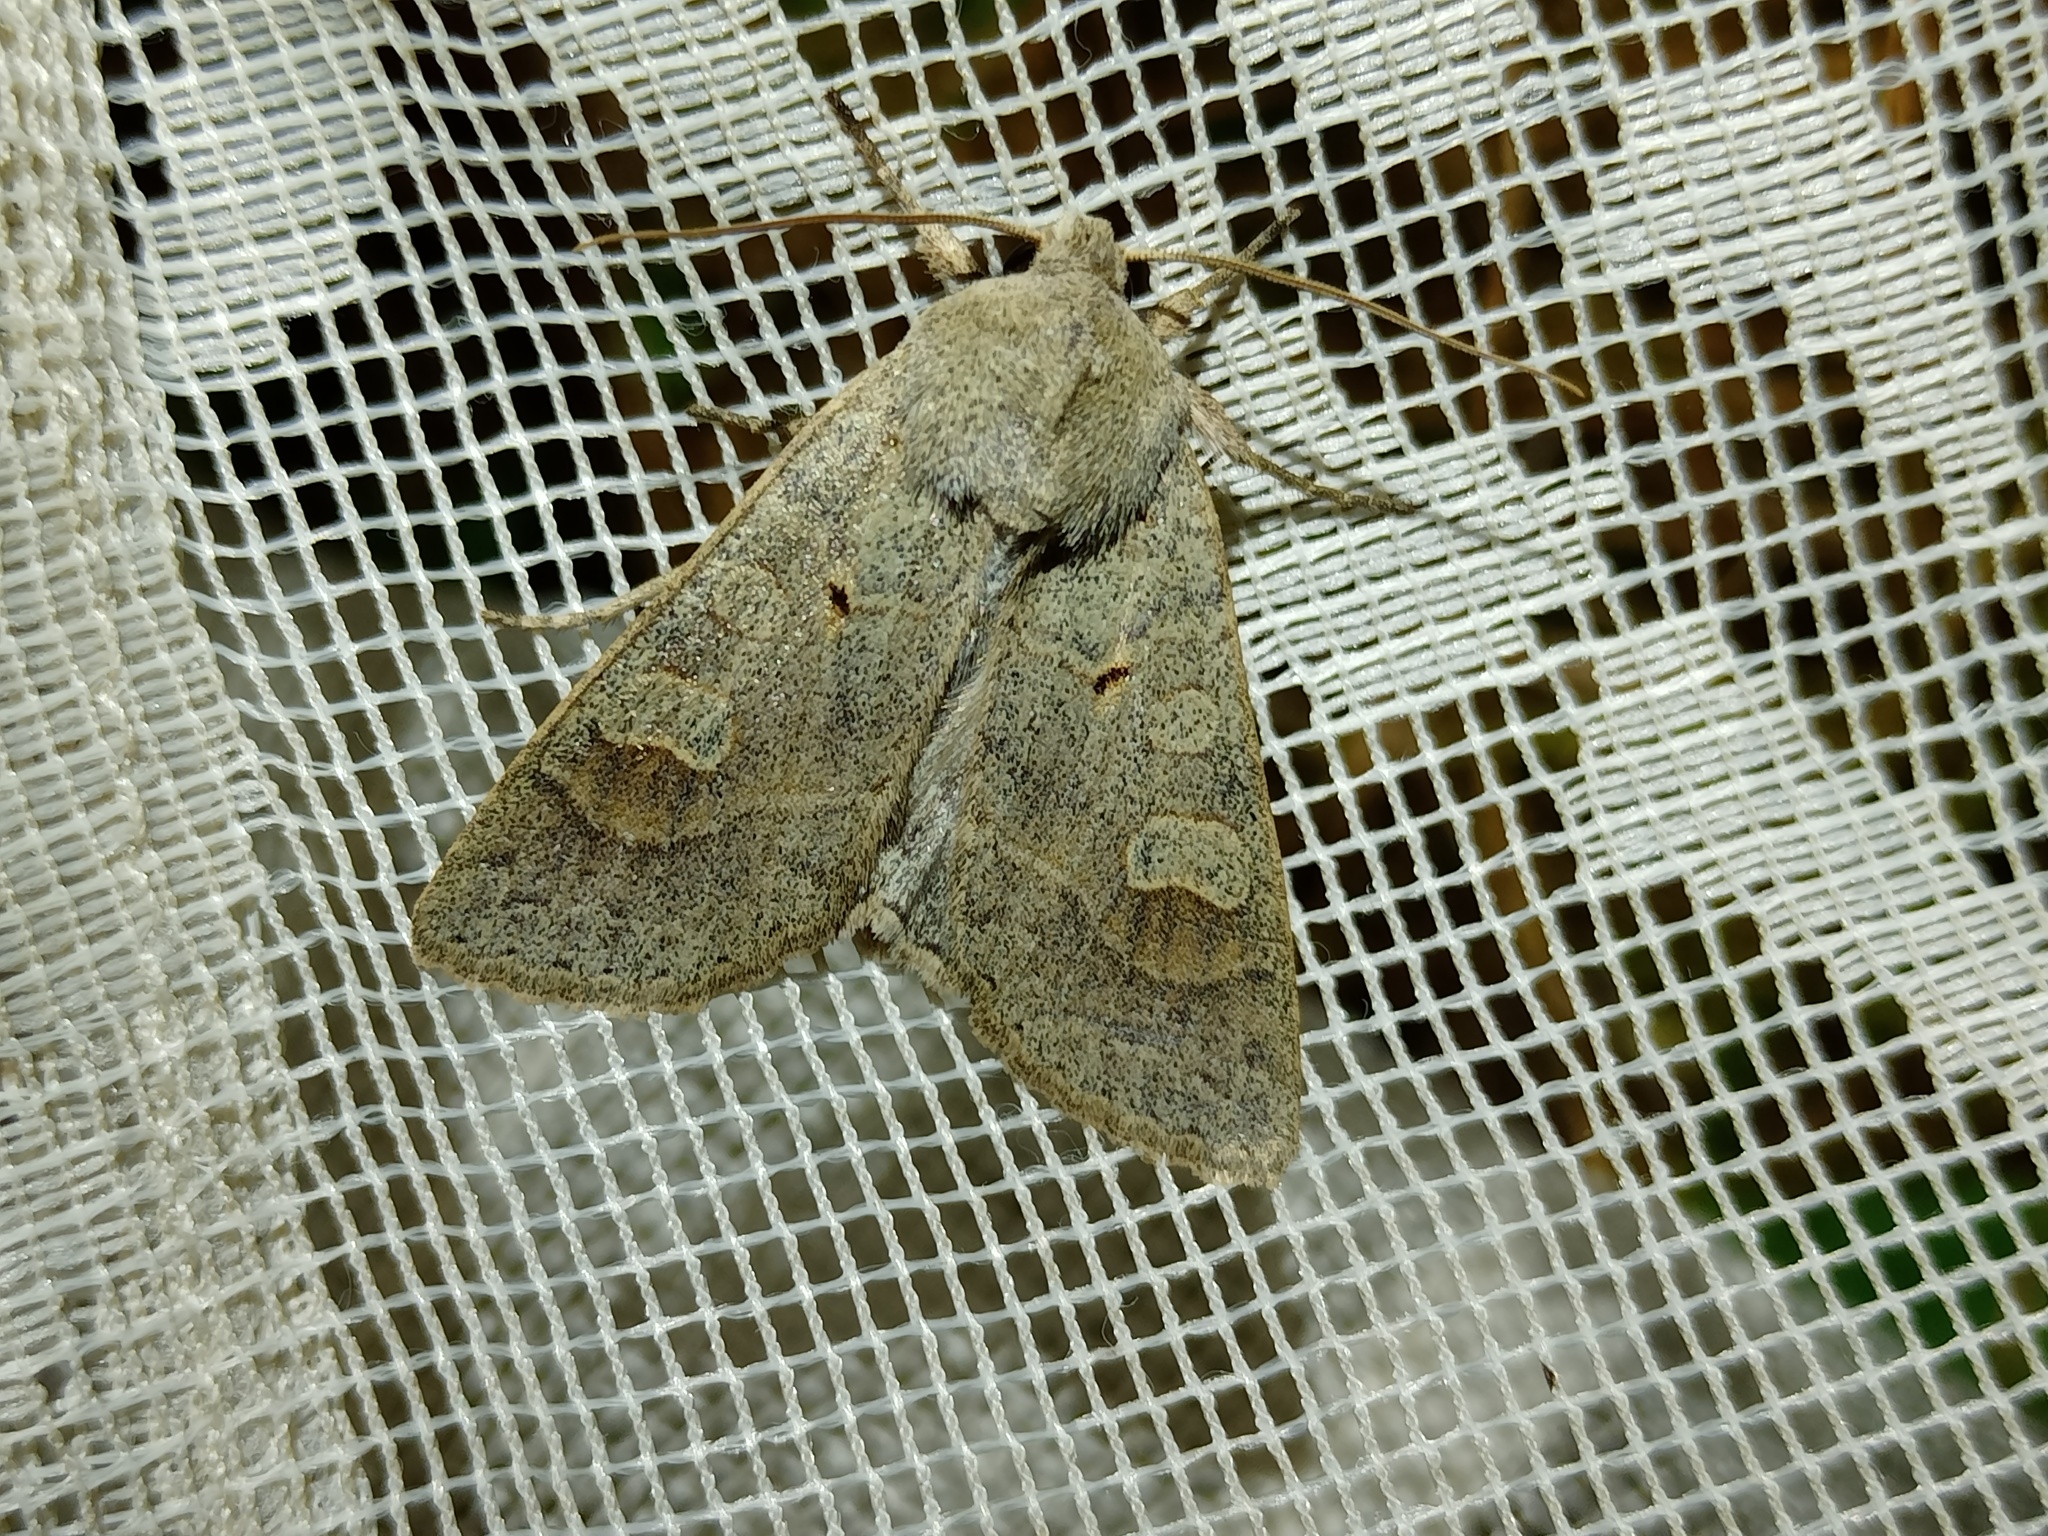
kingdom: Animalia
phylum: Arthropoda
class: Insecta
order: Lepidoptera
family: Noctuidae
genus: Ammoconia
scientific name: Ammoconia caecimacula
